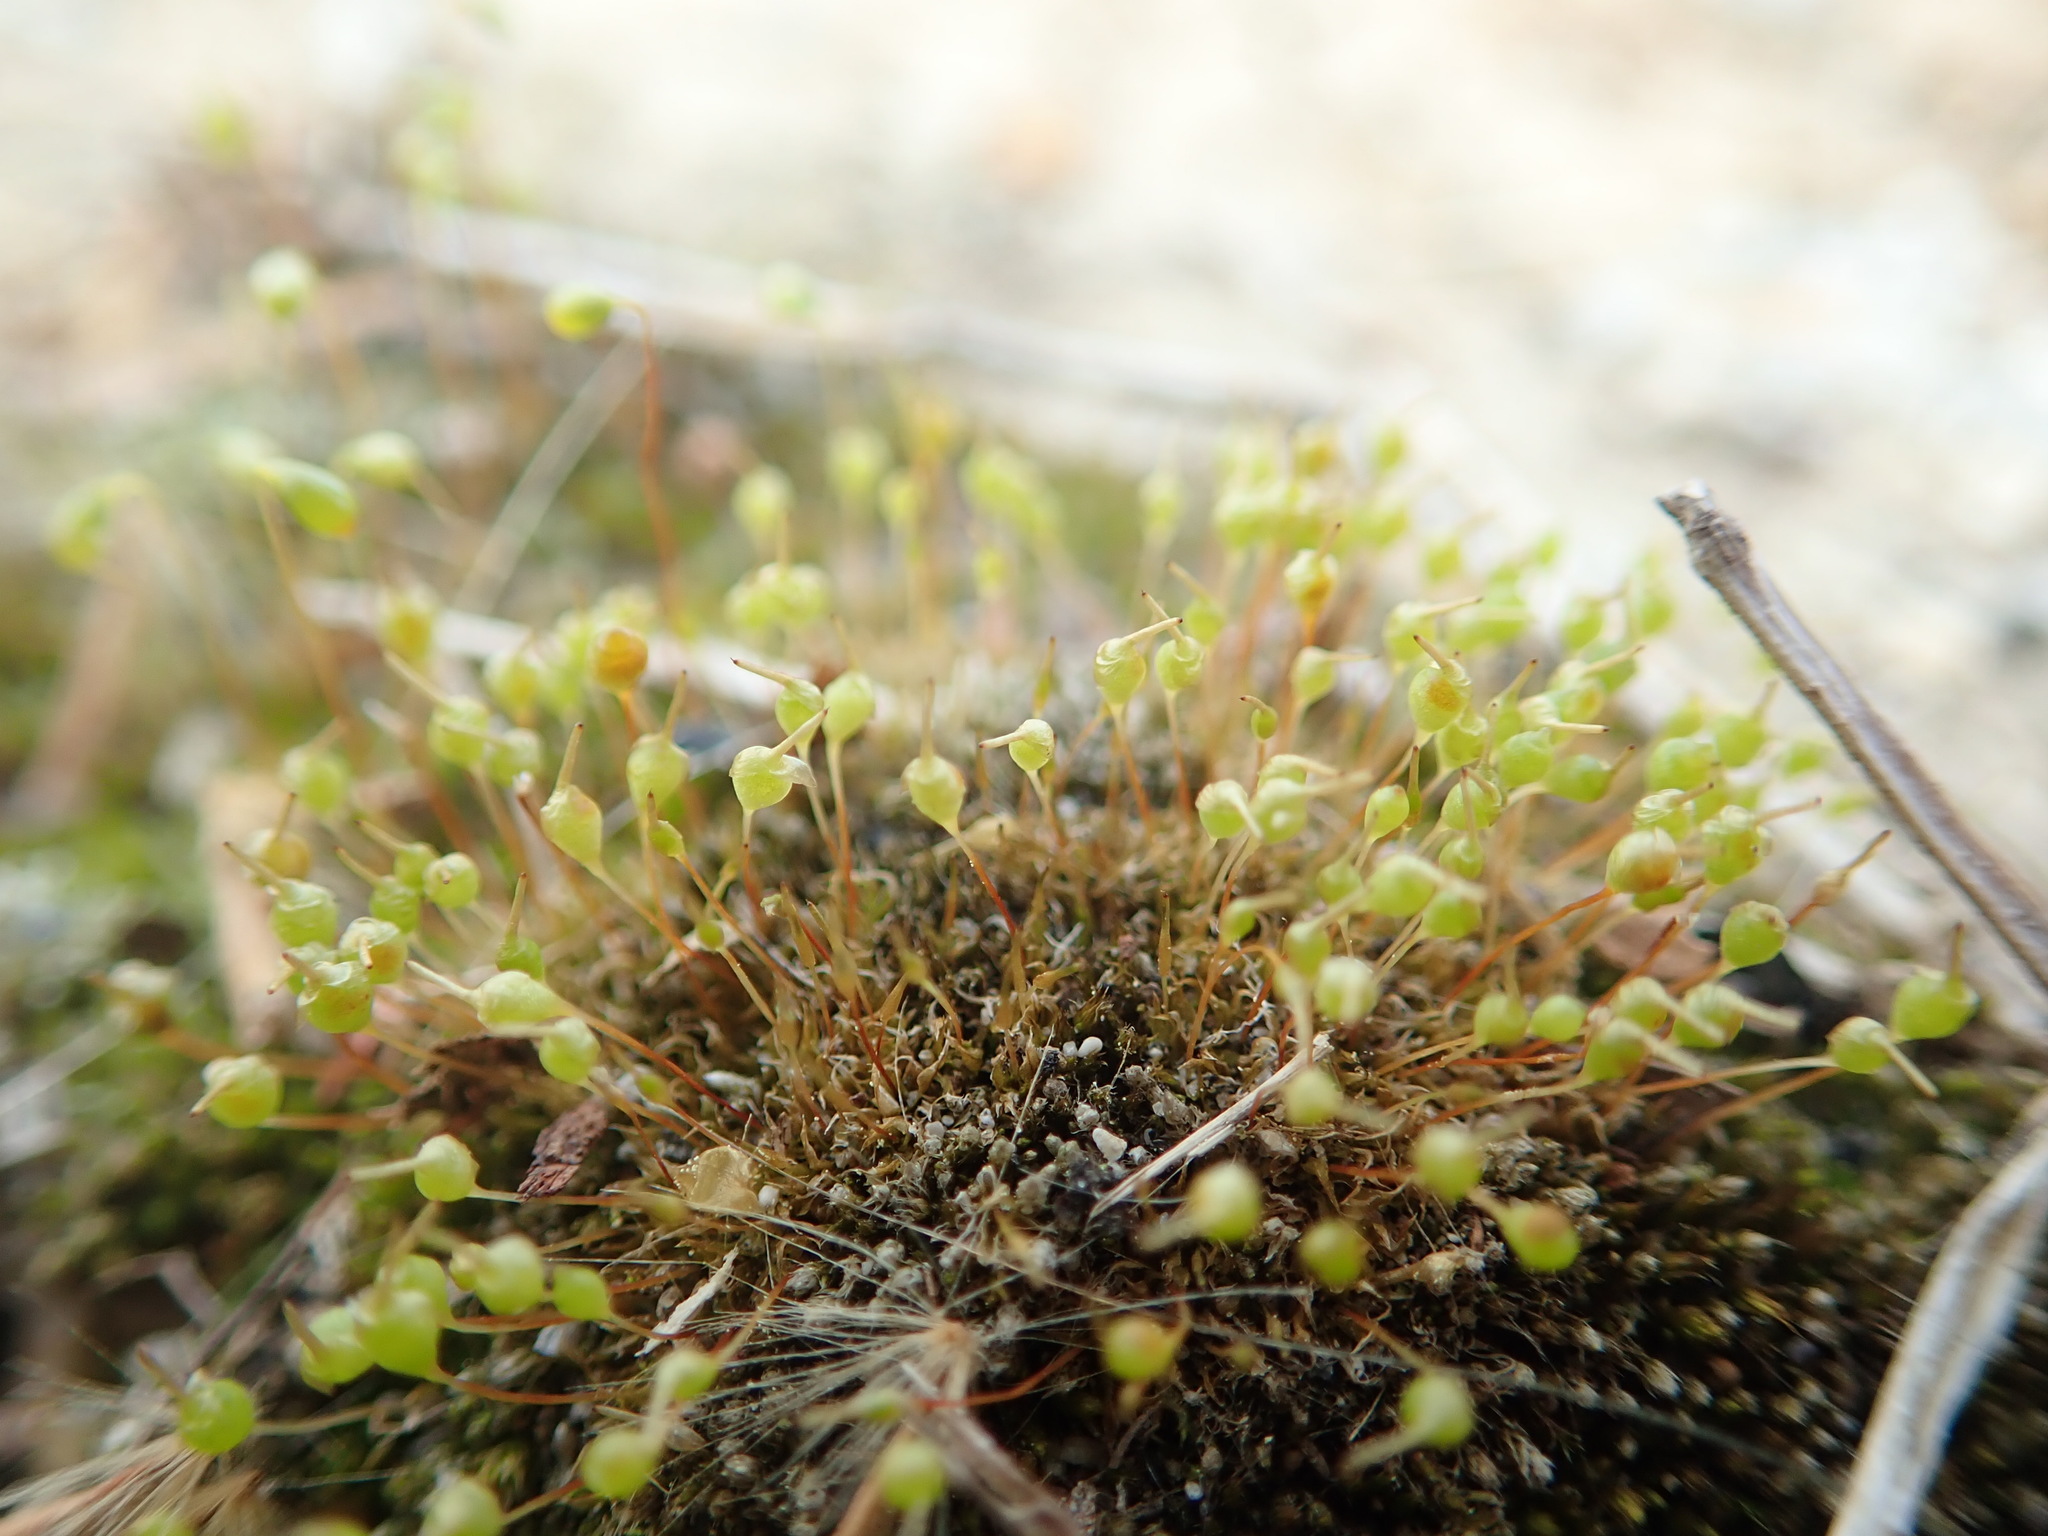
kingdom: Plantae
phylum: Bryophyta
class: Bryopsida
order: Funariales
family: Funariaceae
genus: Physcomitrium
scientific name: Physcomitrium pyriforme
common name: Common bladder-moss
